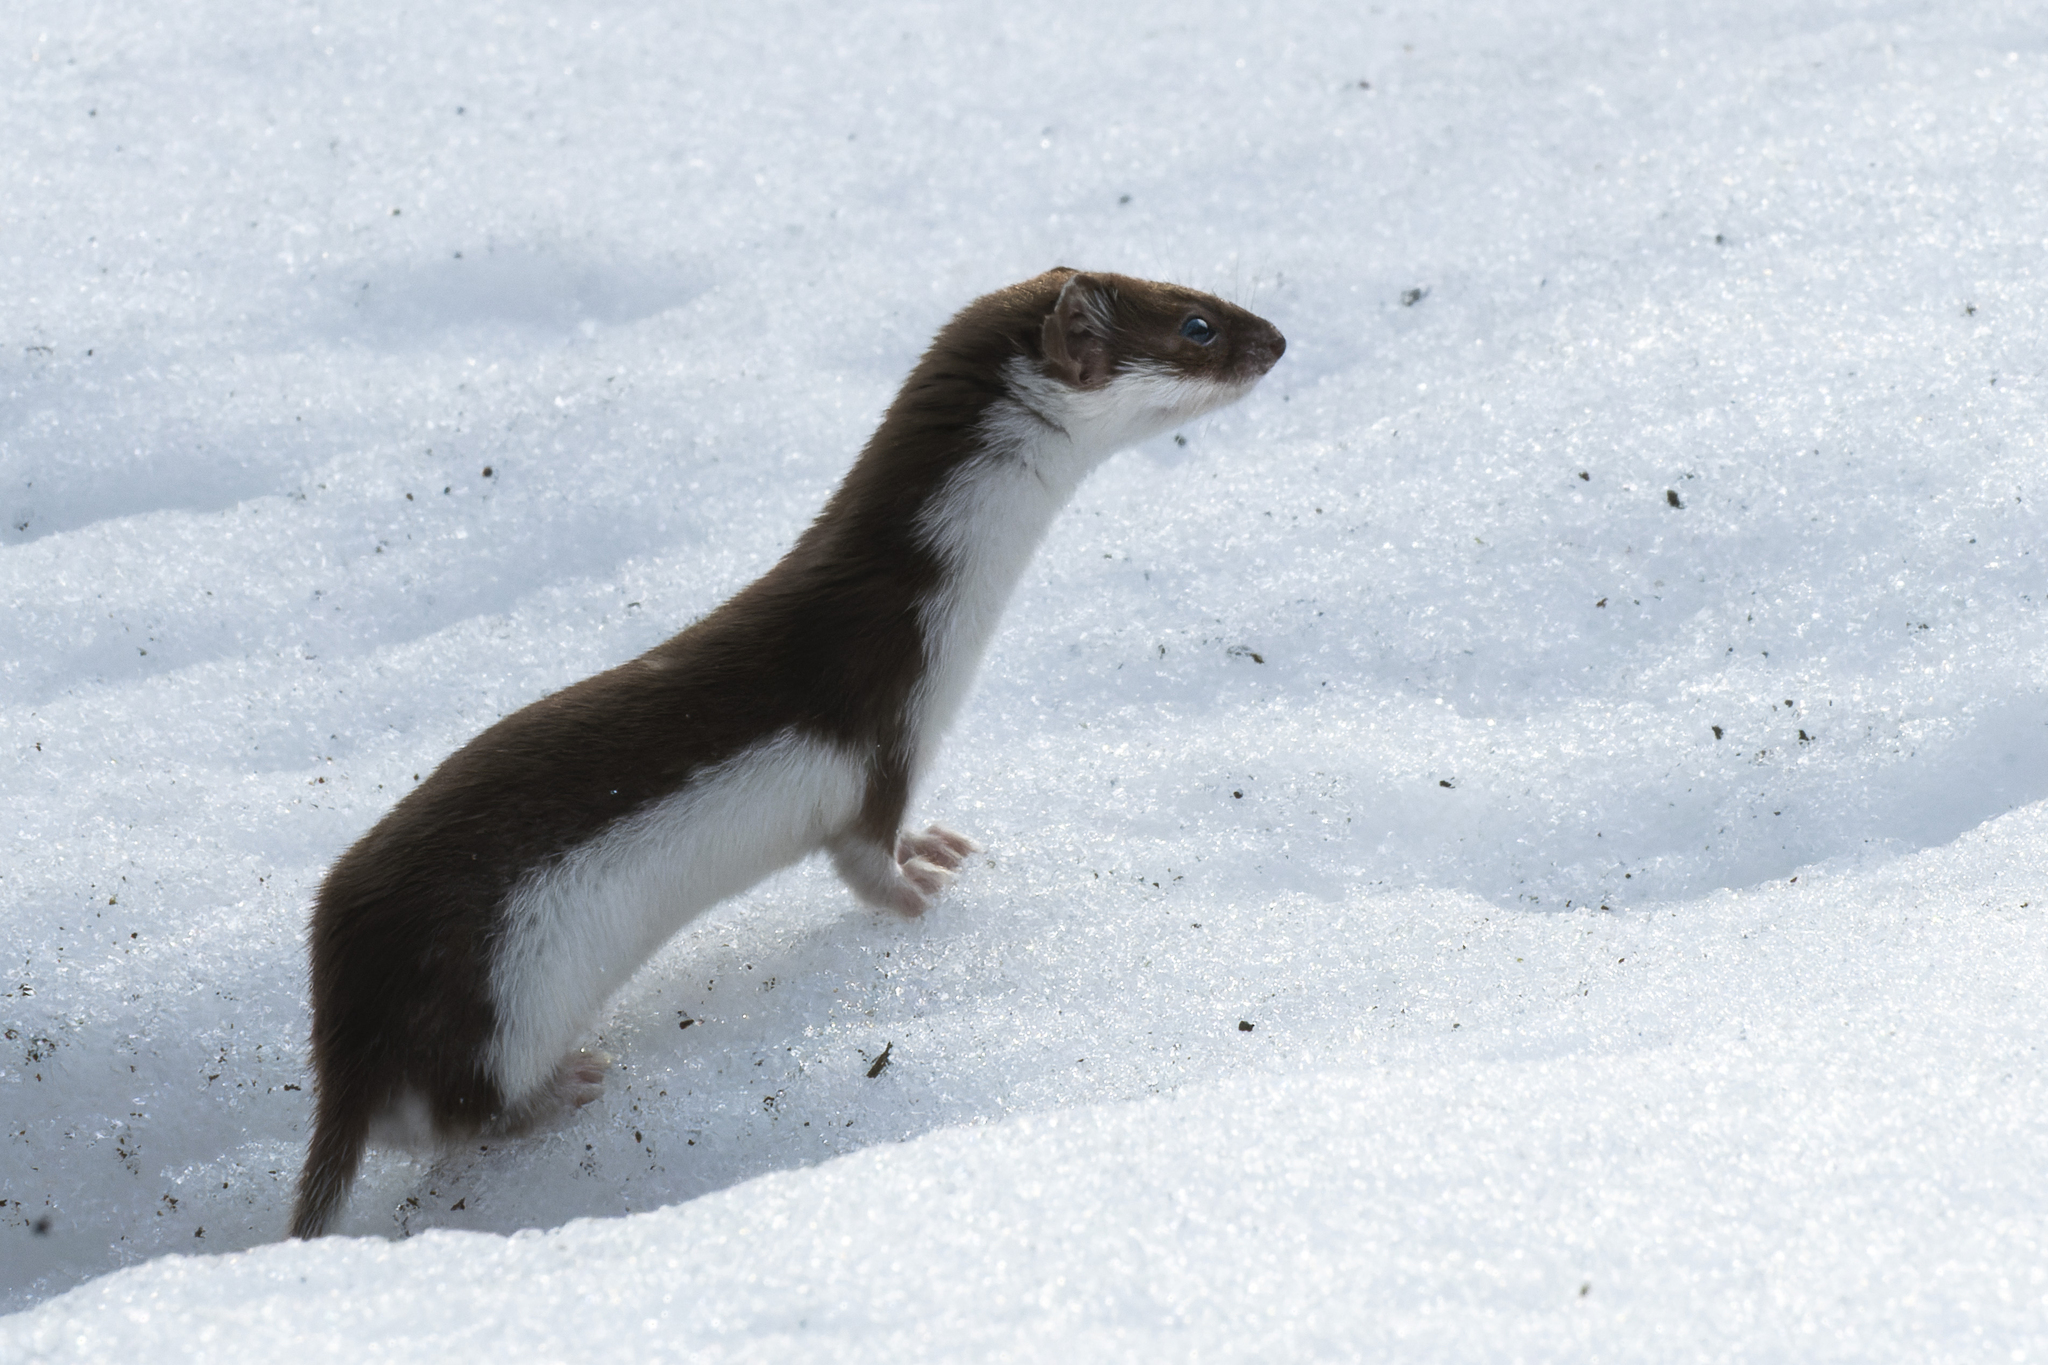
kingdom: Animalia
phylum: Chordata
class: Mammalia
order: Carnivora
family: Mustelidae
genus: Mustela
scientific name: Mustela nivalis
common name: Least weasel
